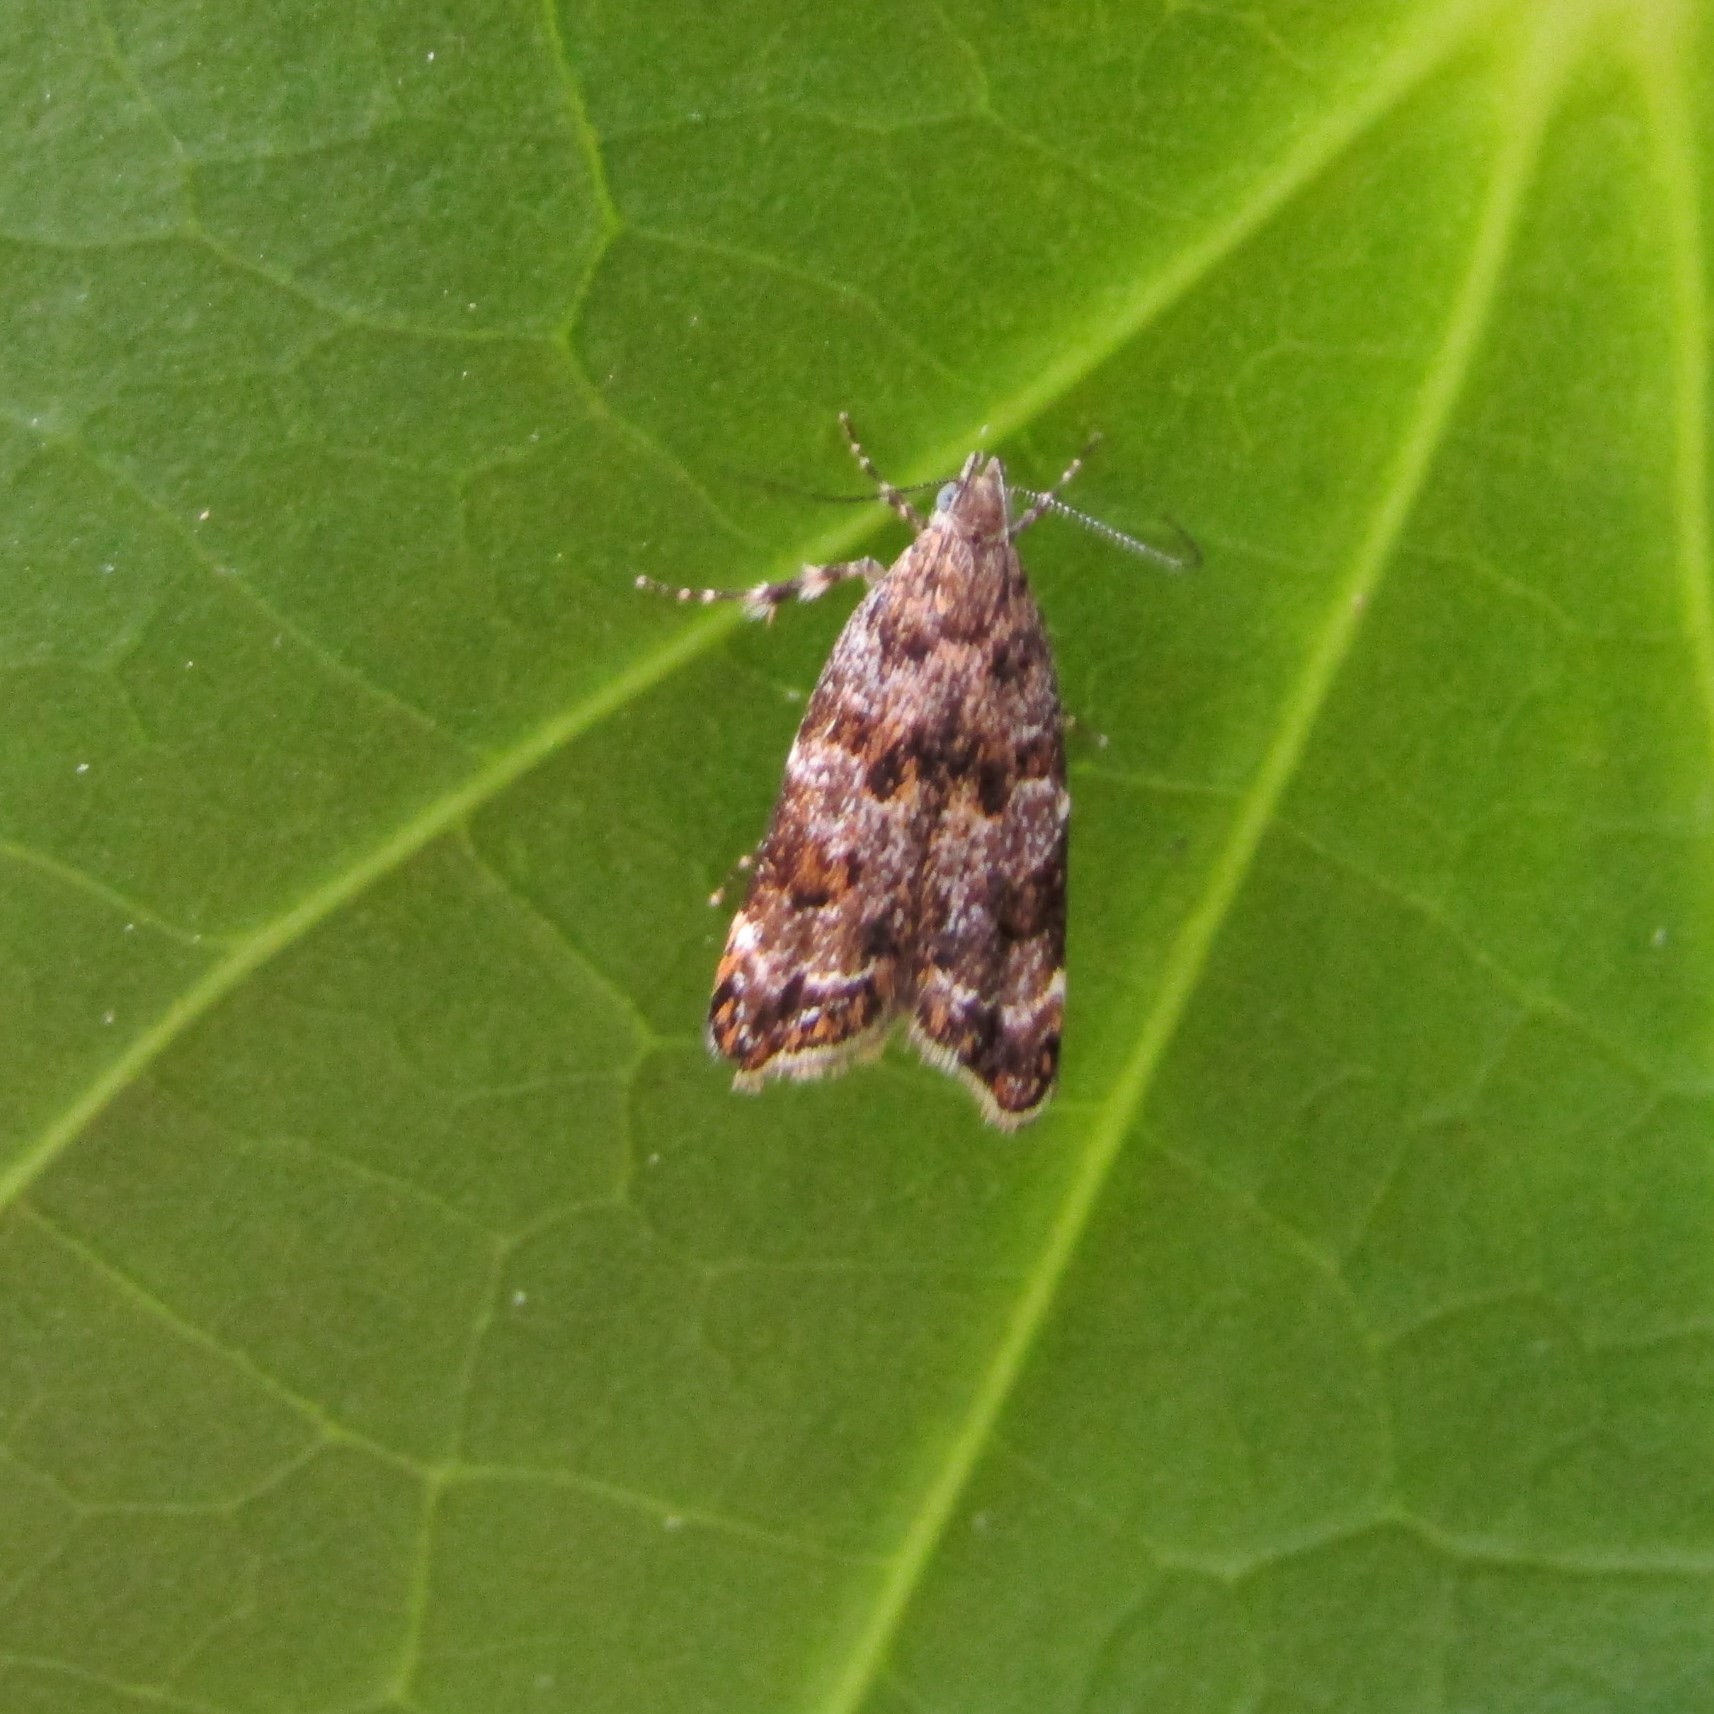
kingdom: Animalia
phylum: Arthropoda
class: Insecta
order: Lepidoptera
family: Oecophoridae
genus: Gymnobathra
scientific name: Gymnobathra omphalota
